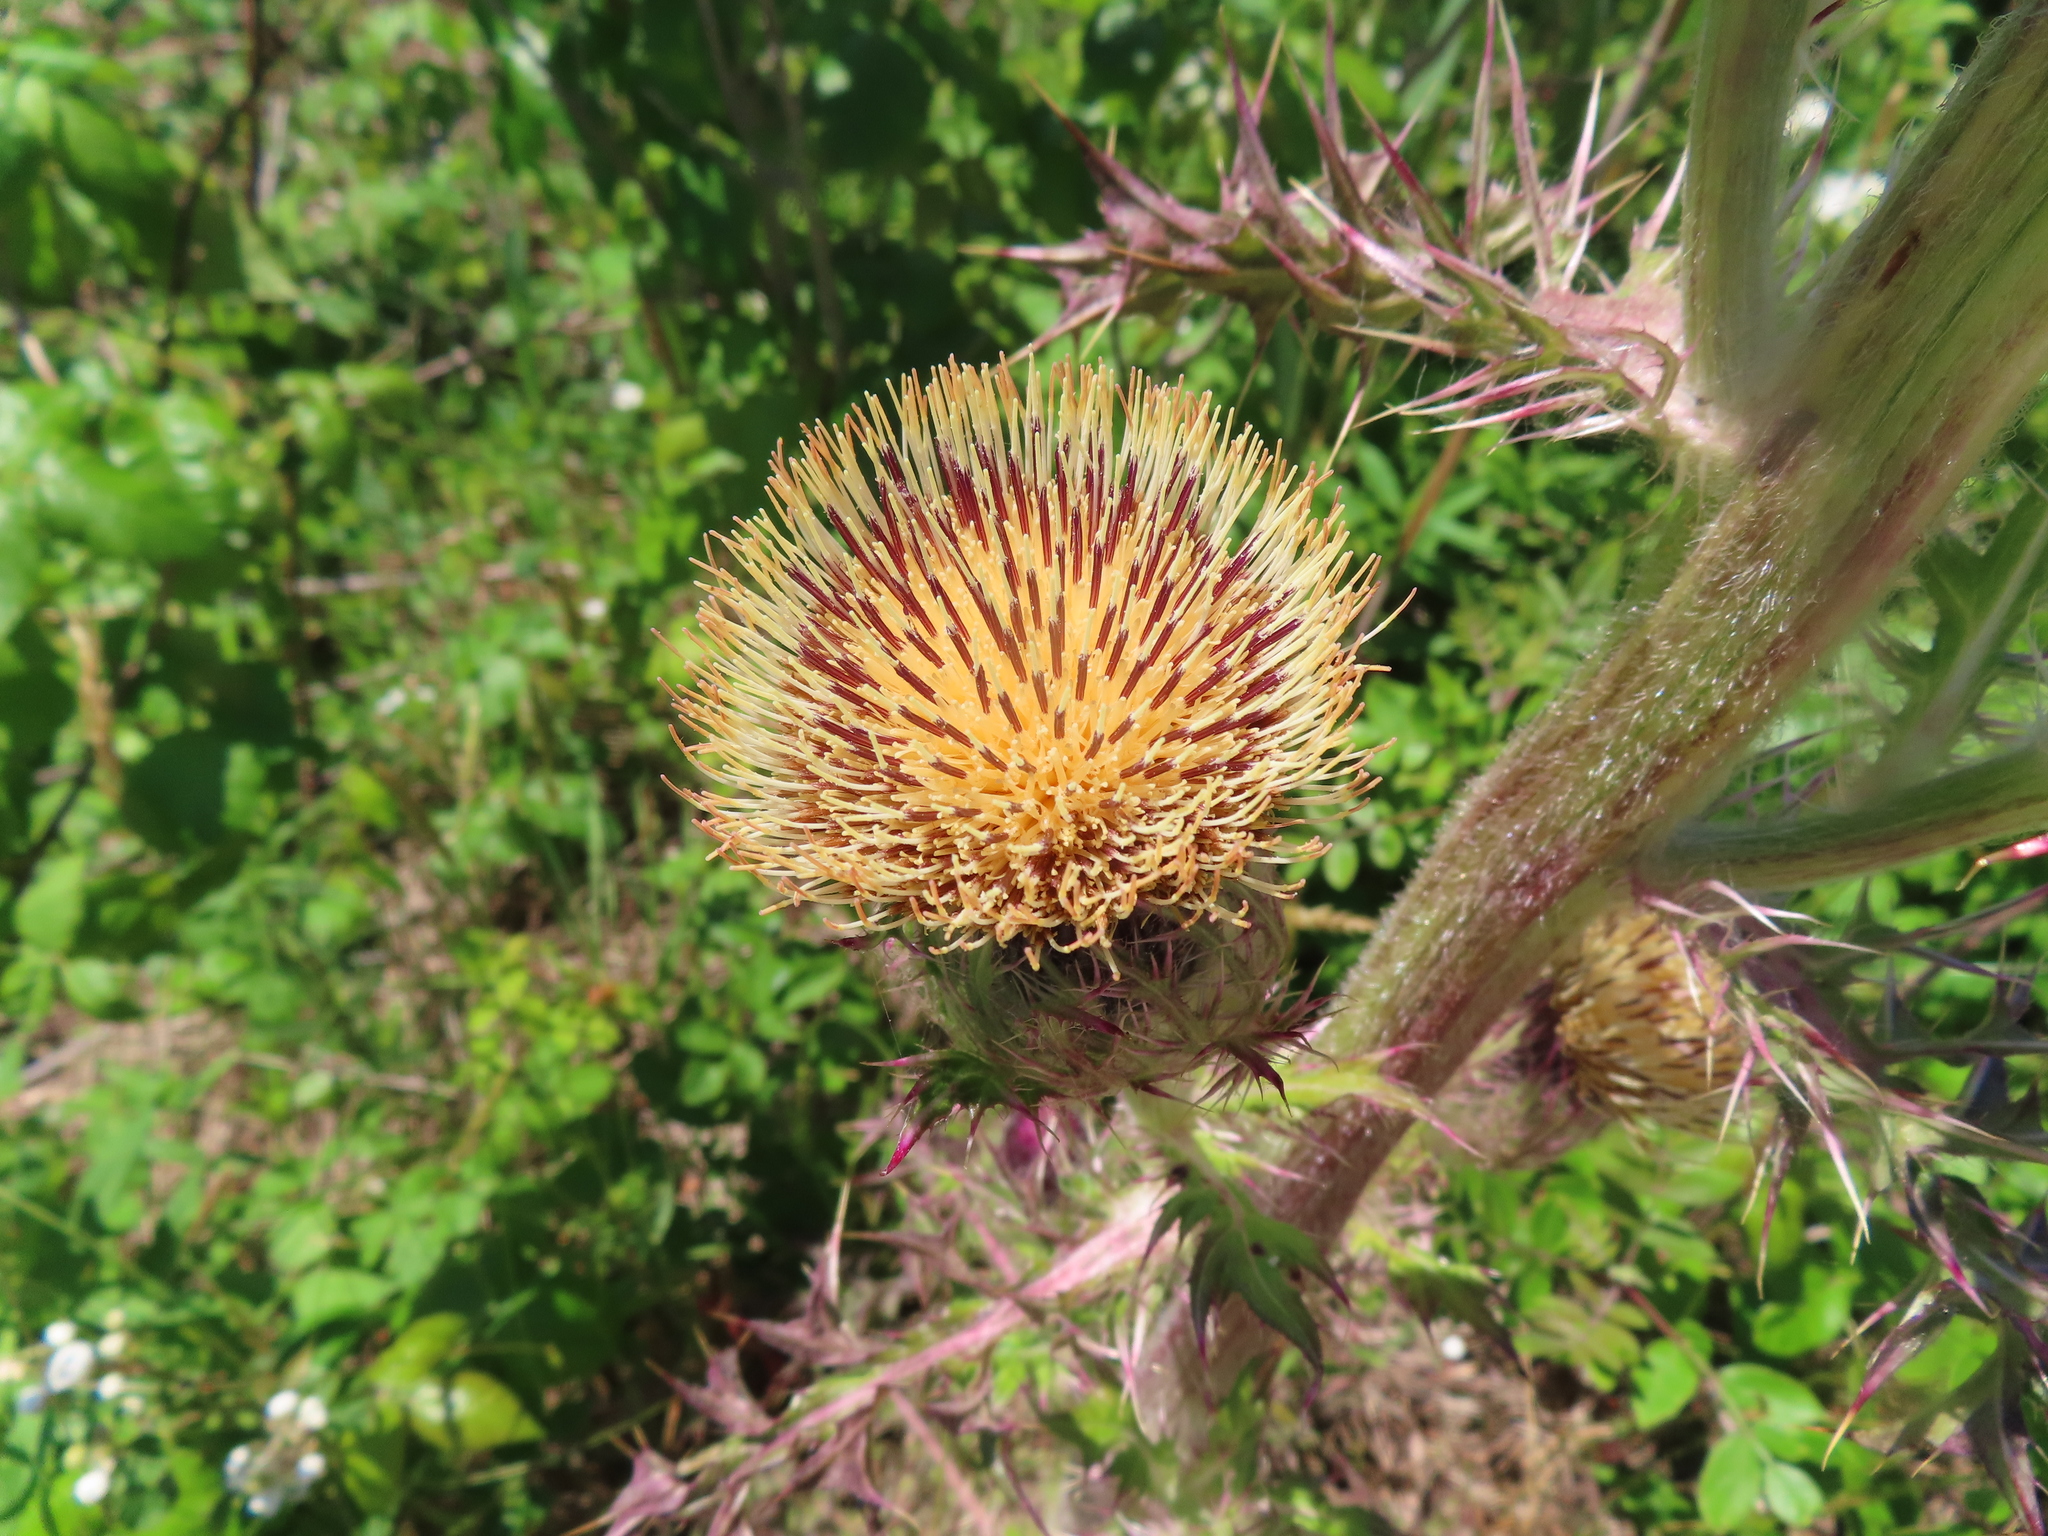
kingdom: Plantae
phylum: Tracheophyta
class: Magnoliopsida
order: Asterales
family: Asteraceae
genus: Cirsium
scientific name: Cirsium horridulum
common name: Bristly thistle
